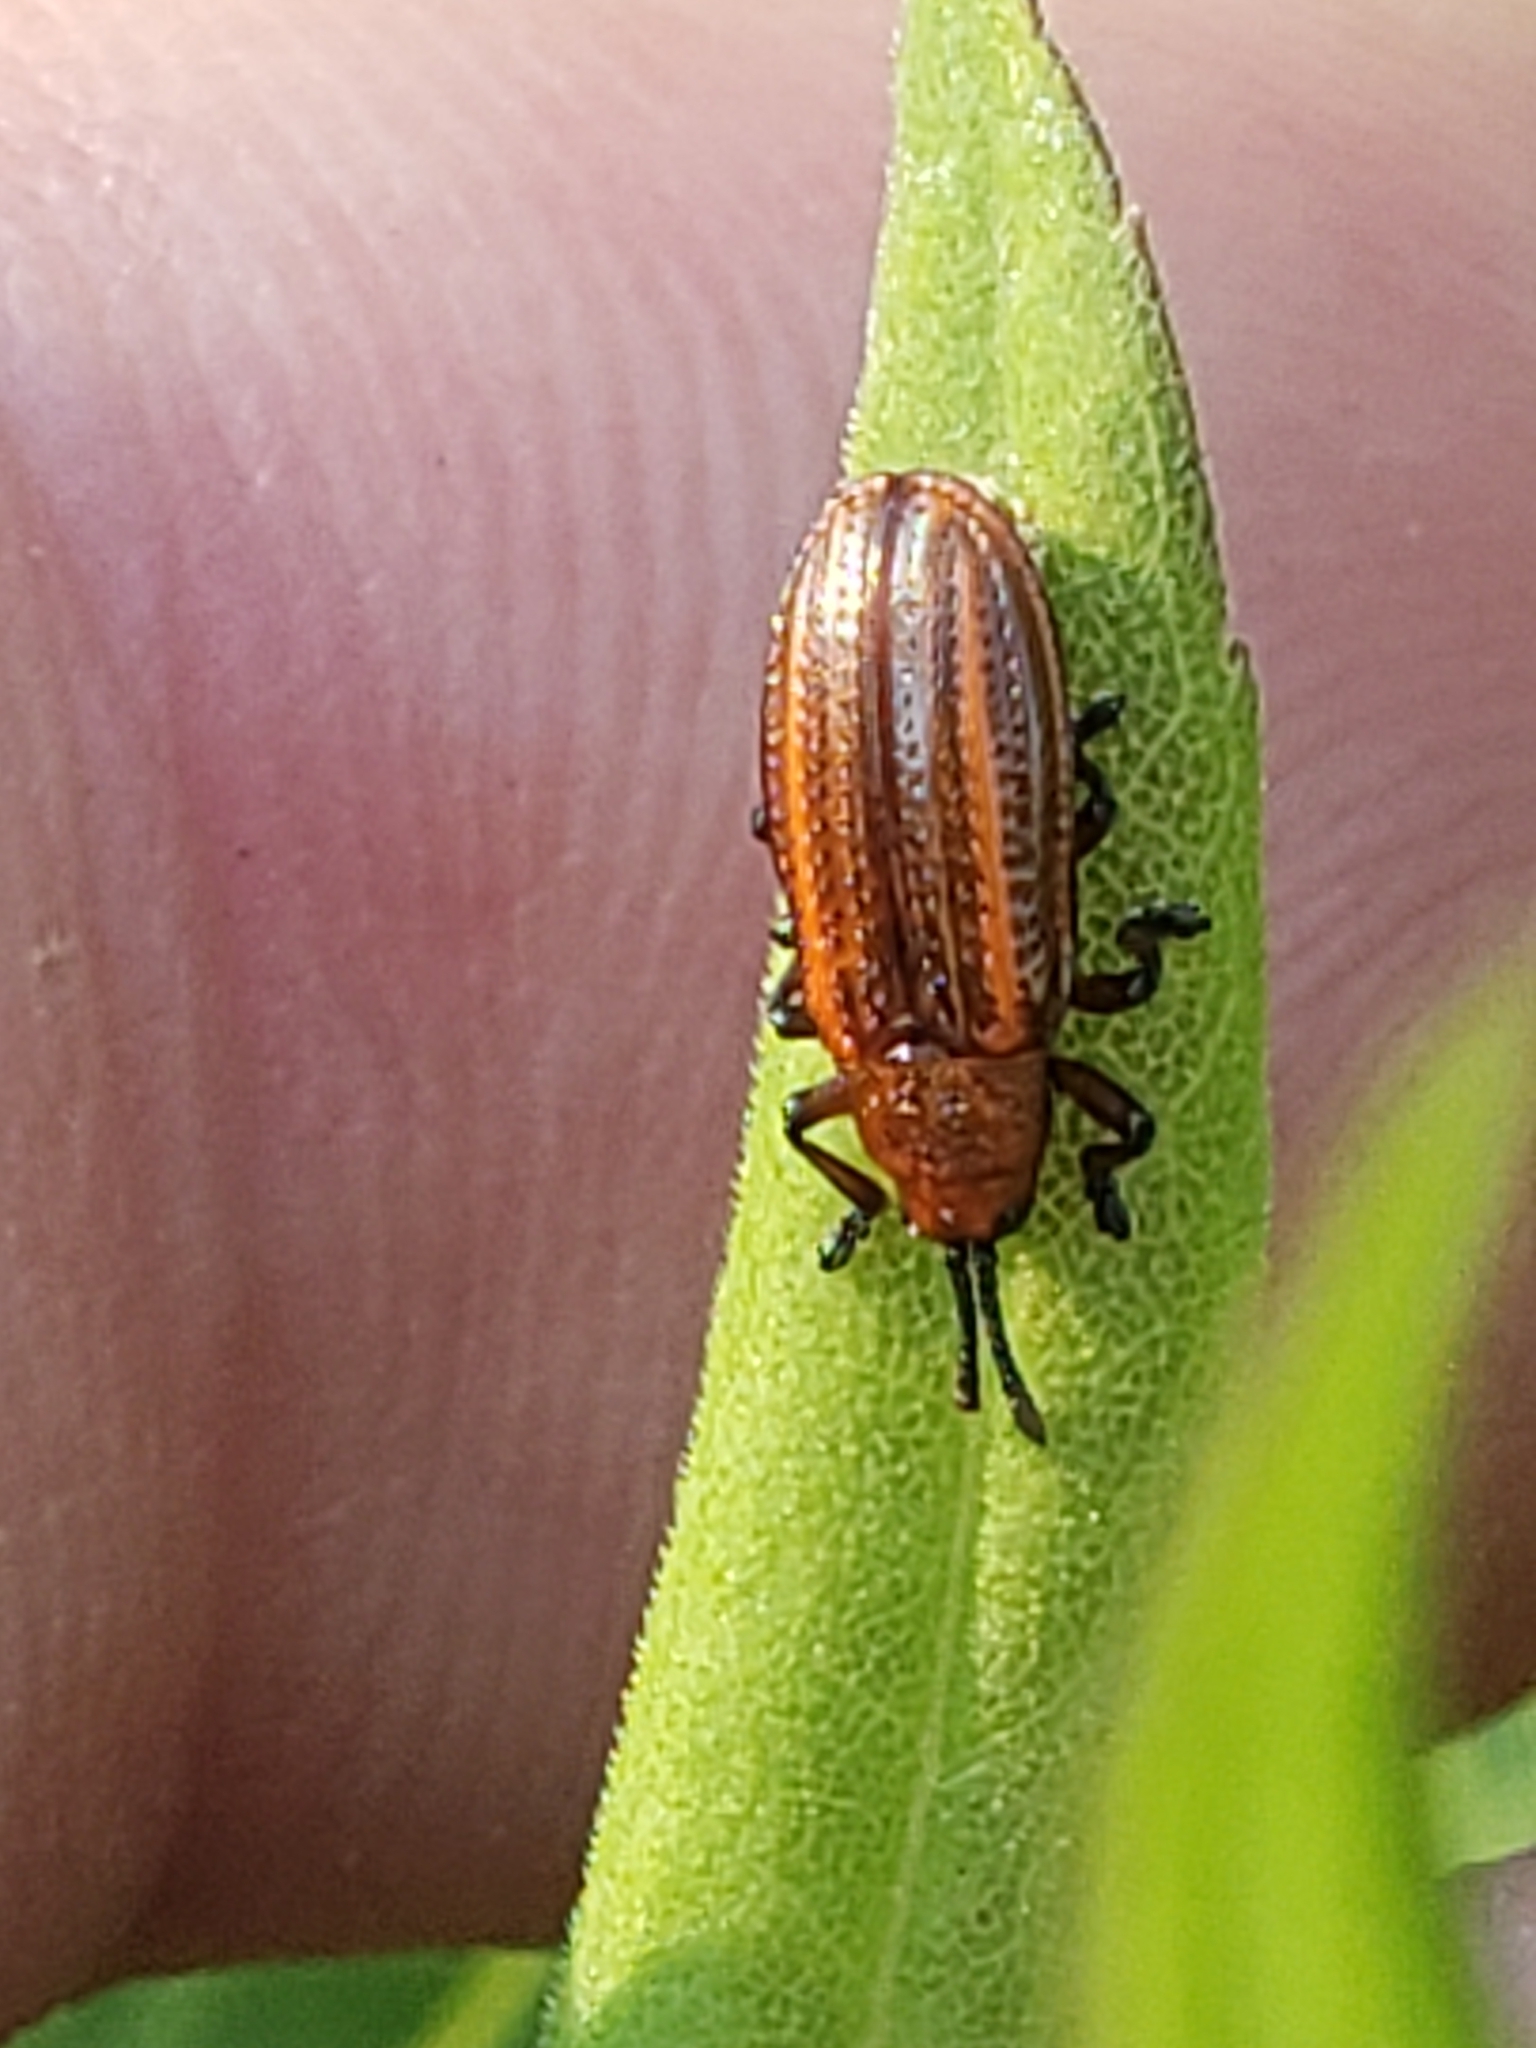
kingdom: Animalia
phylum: Arthropoda
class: Insecta
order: Coleoptera
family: Chrysomelidae
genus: Microrhopala
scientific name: Microrhopala vittata
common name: Goldenrod leaf miner beetle
